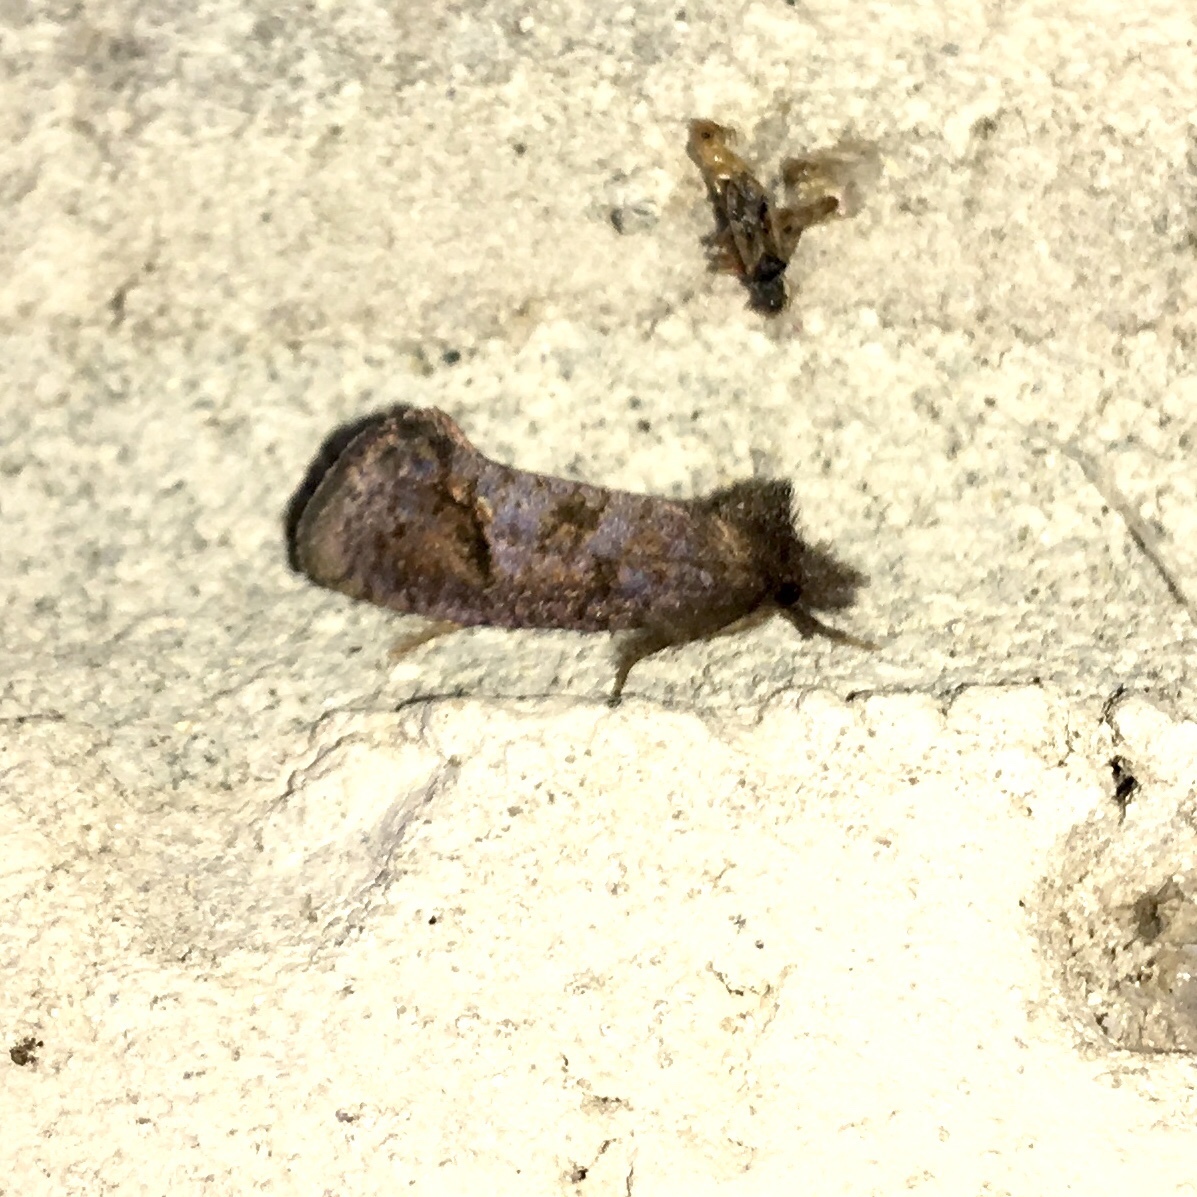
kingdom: Animalia
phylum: Arthropoda
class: Insecta
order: Lepidoptera
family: Tineidae
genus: Acrolophus
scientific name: Acrolophus texanella
